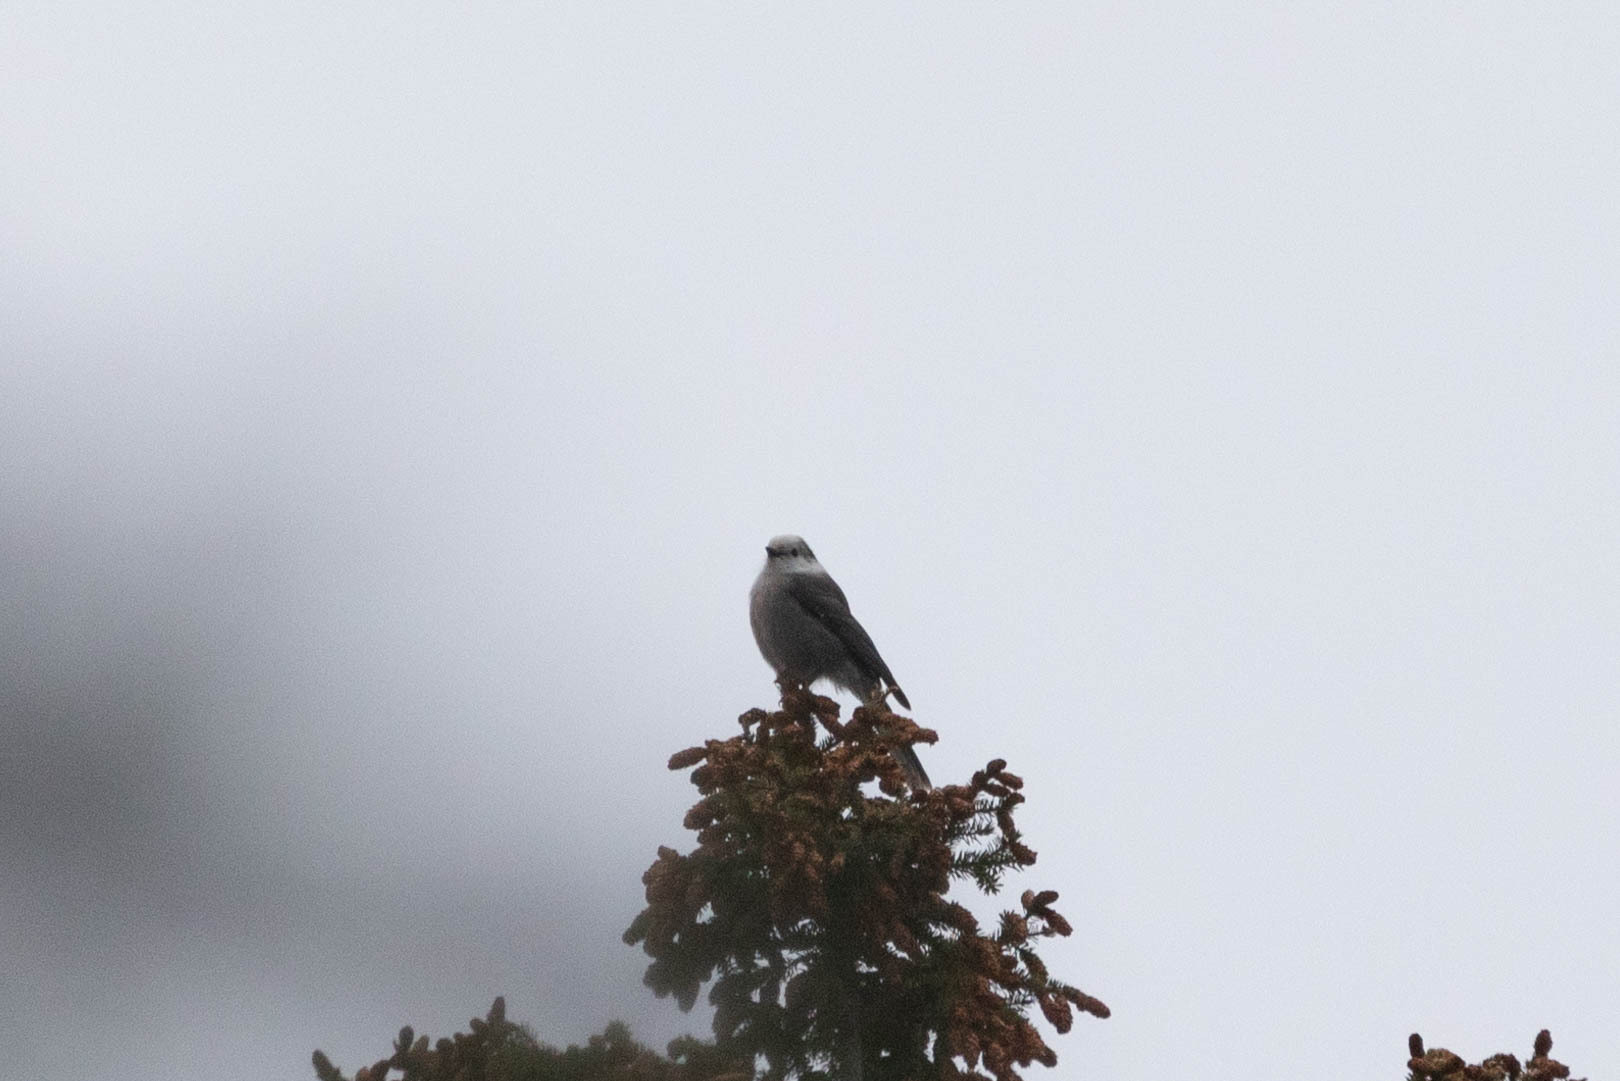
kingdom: Animalia
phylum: Chordata
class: Aves
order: Passeriformes
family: Corvidae
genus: Perisoreus
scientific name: Perisoreus canadensis
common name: Gray jay
